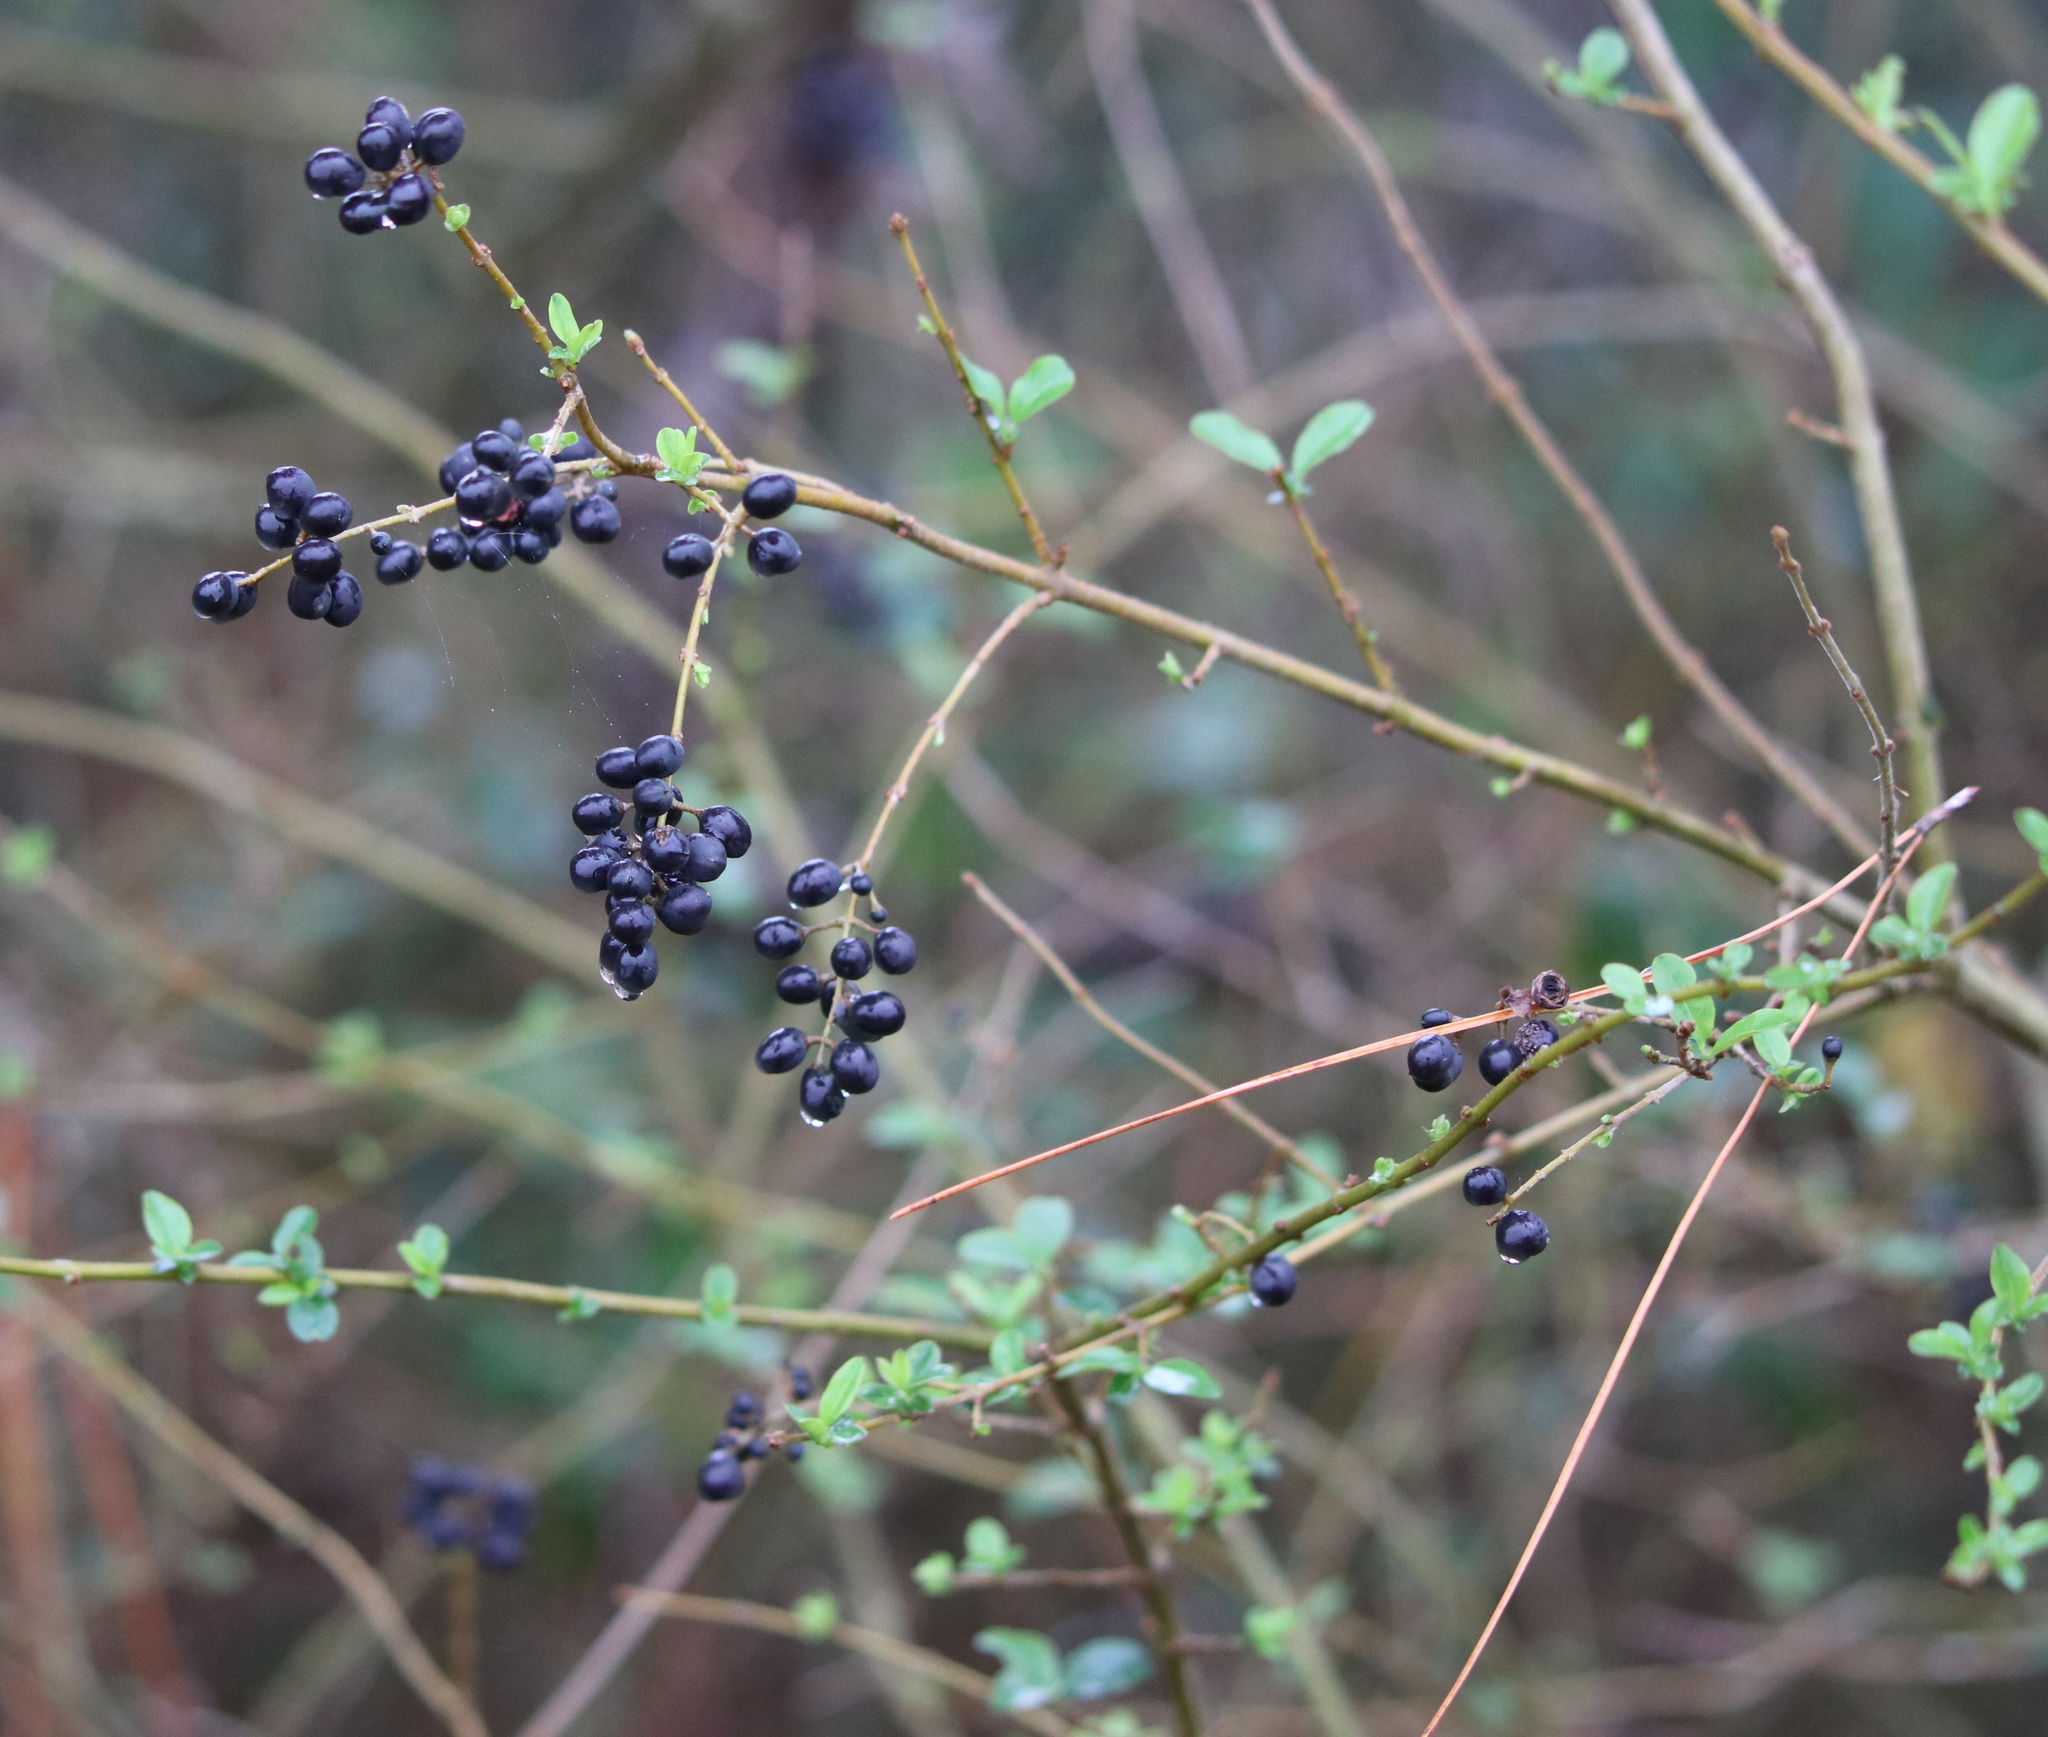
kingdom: Plantae
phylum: Tracheophyta
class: Magnoliopsida
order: Lamiales
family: Oleaceae
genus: Ligustrum
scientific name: Ligustrum sinense
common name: Chinese privet
